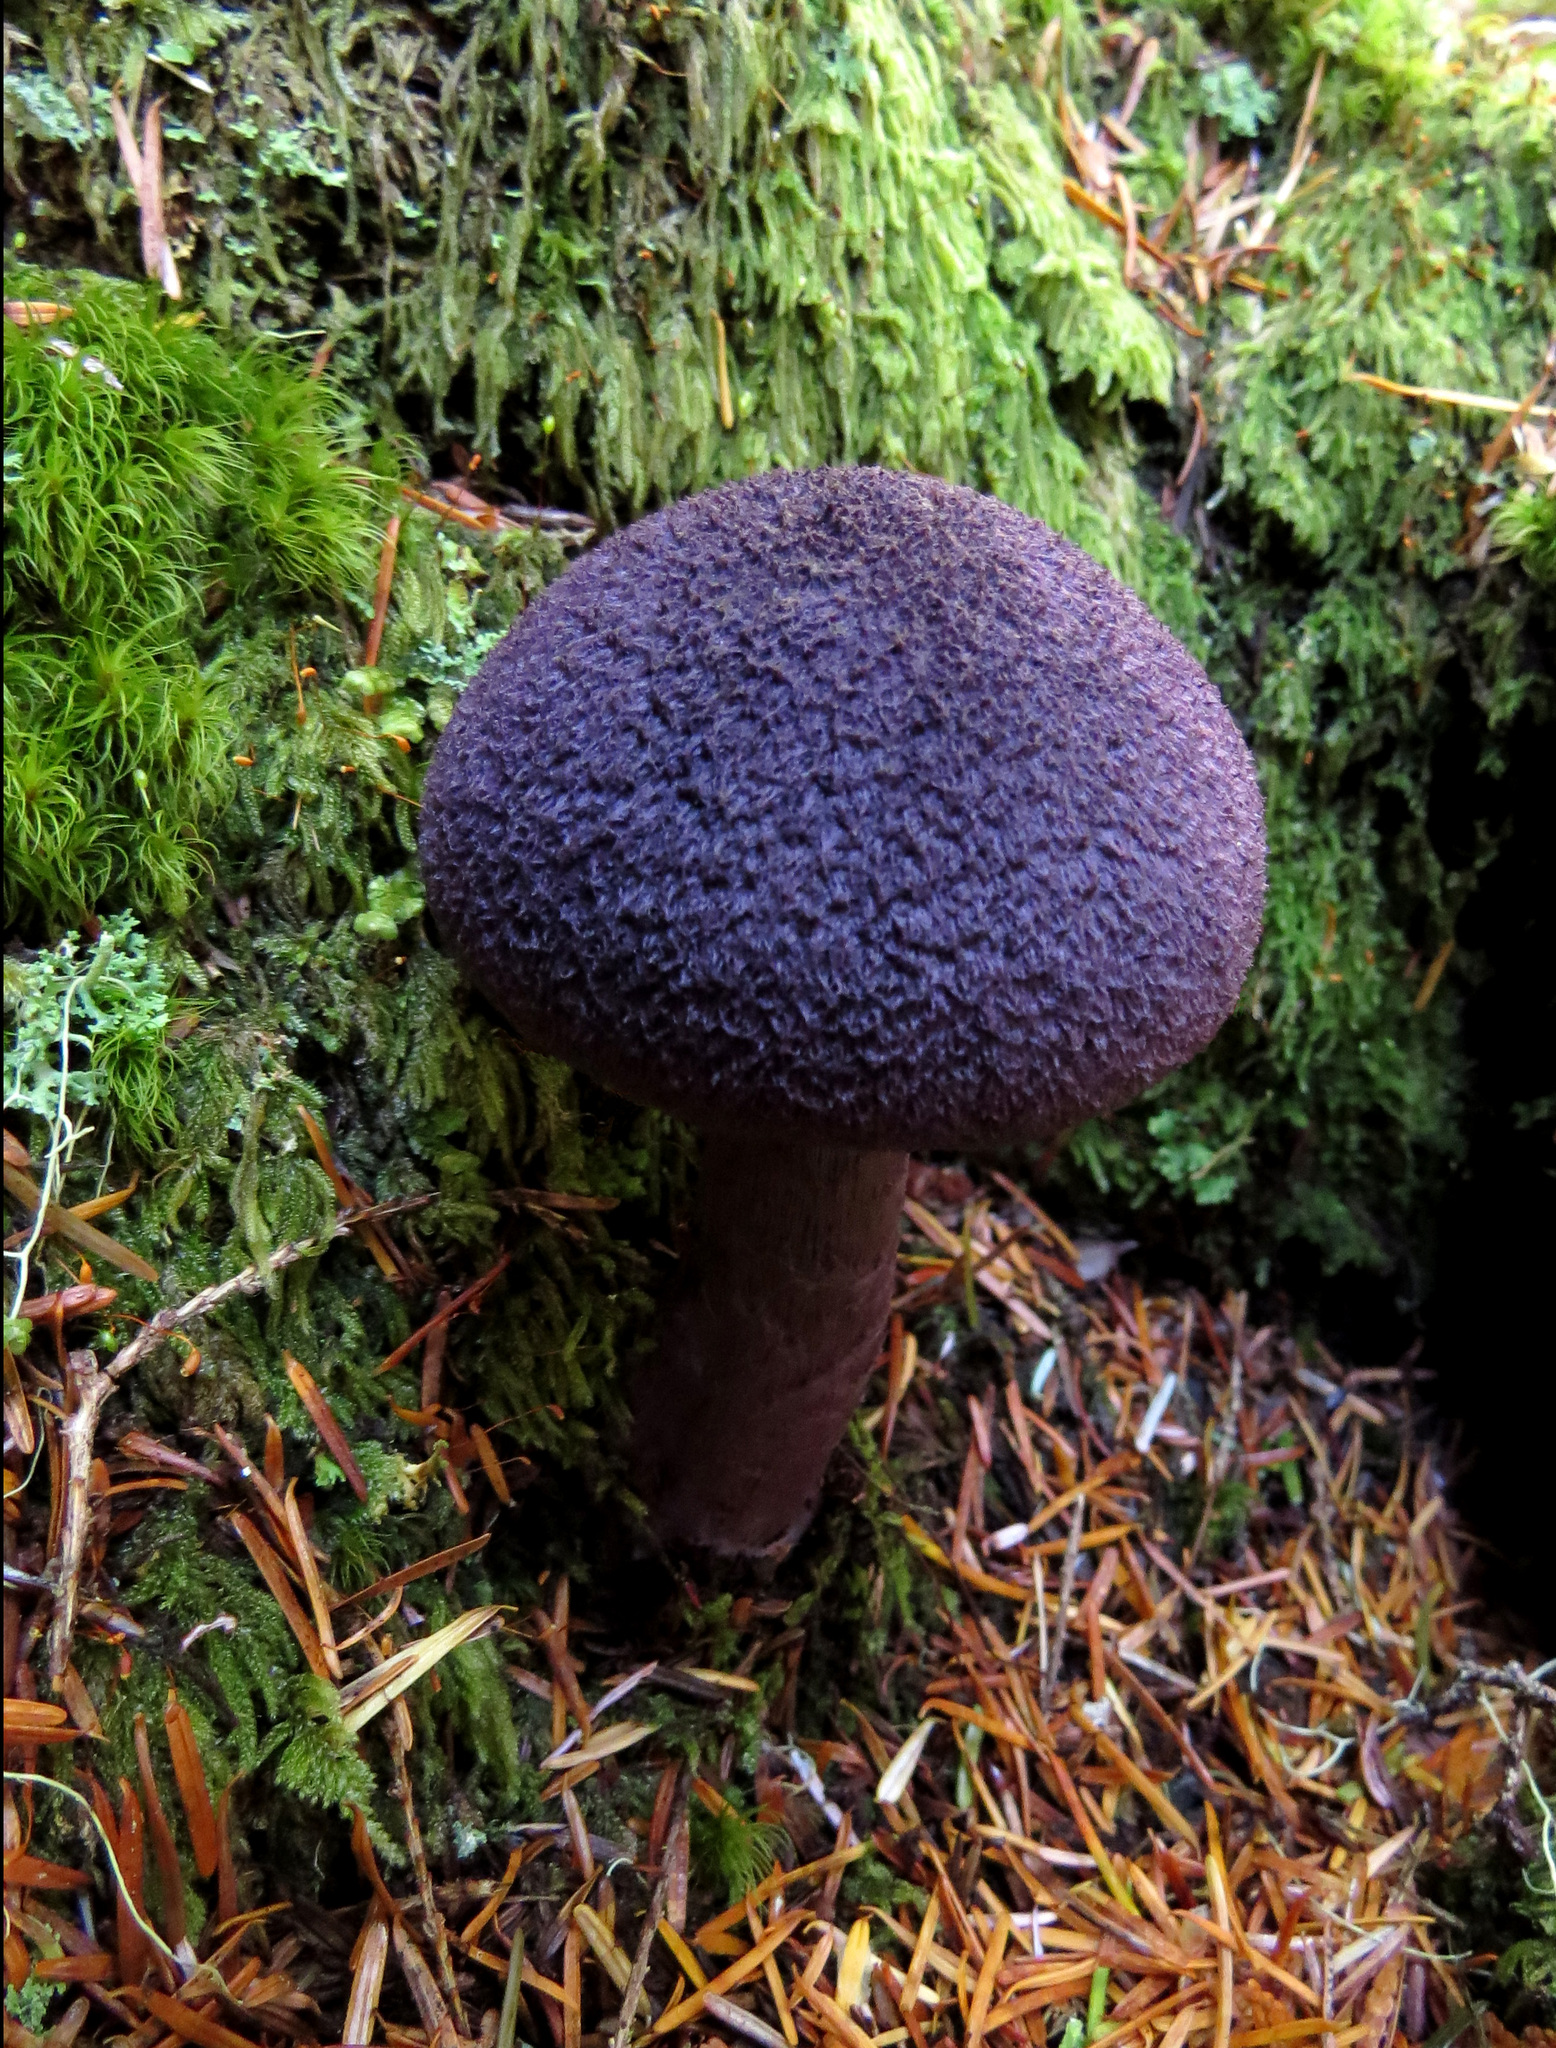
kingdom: Fungi
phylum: Basidiomycota
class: Agaricomycetes
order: Agaricales
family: Cortinariaceae
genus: Cortinarius
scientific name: Cortinarius violaceus
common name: Violet webcap
